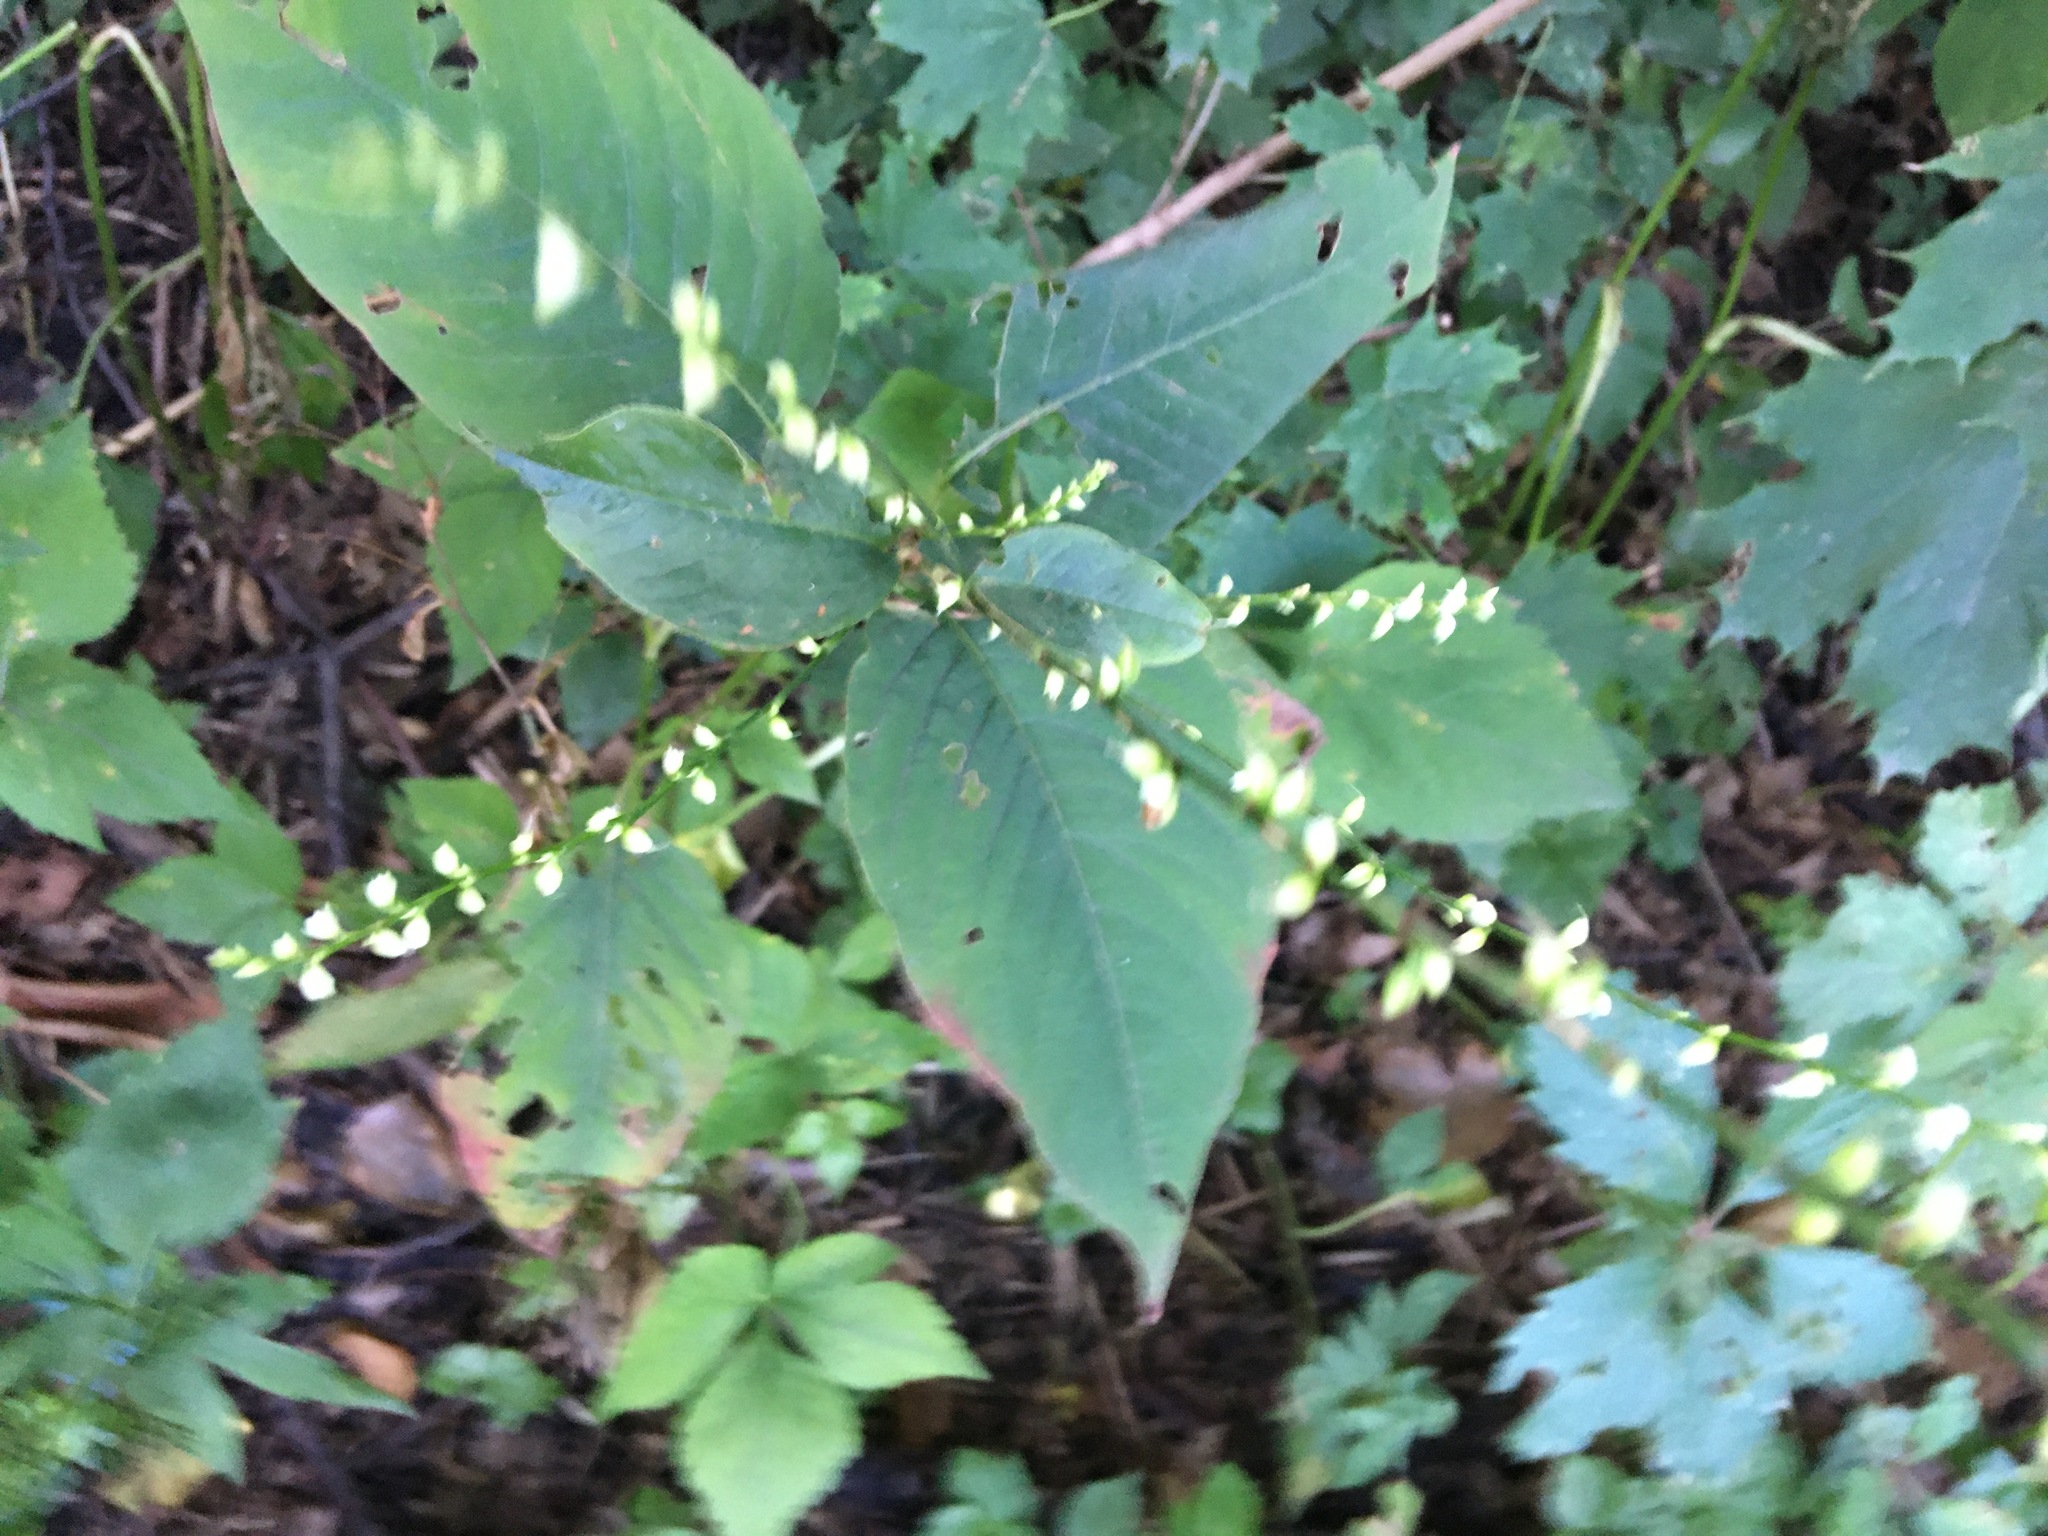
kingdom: Plantae
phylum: Tracheophyta
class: Magnoliopsida
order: Caryophyllales
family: Polygonaceae
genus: Persicaria
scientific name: Persicaria virginiana
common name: Jumpseed
